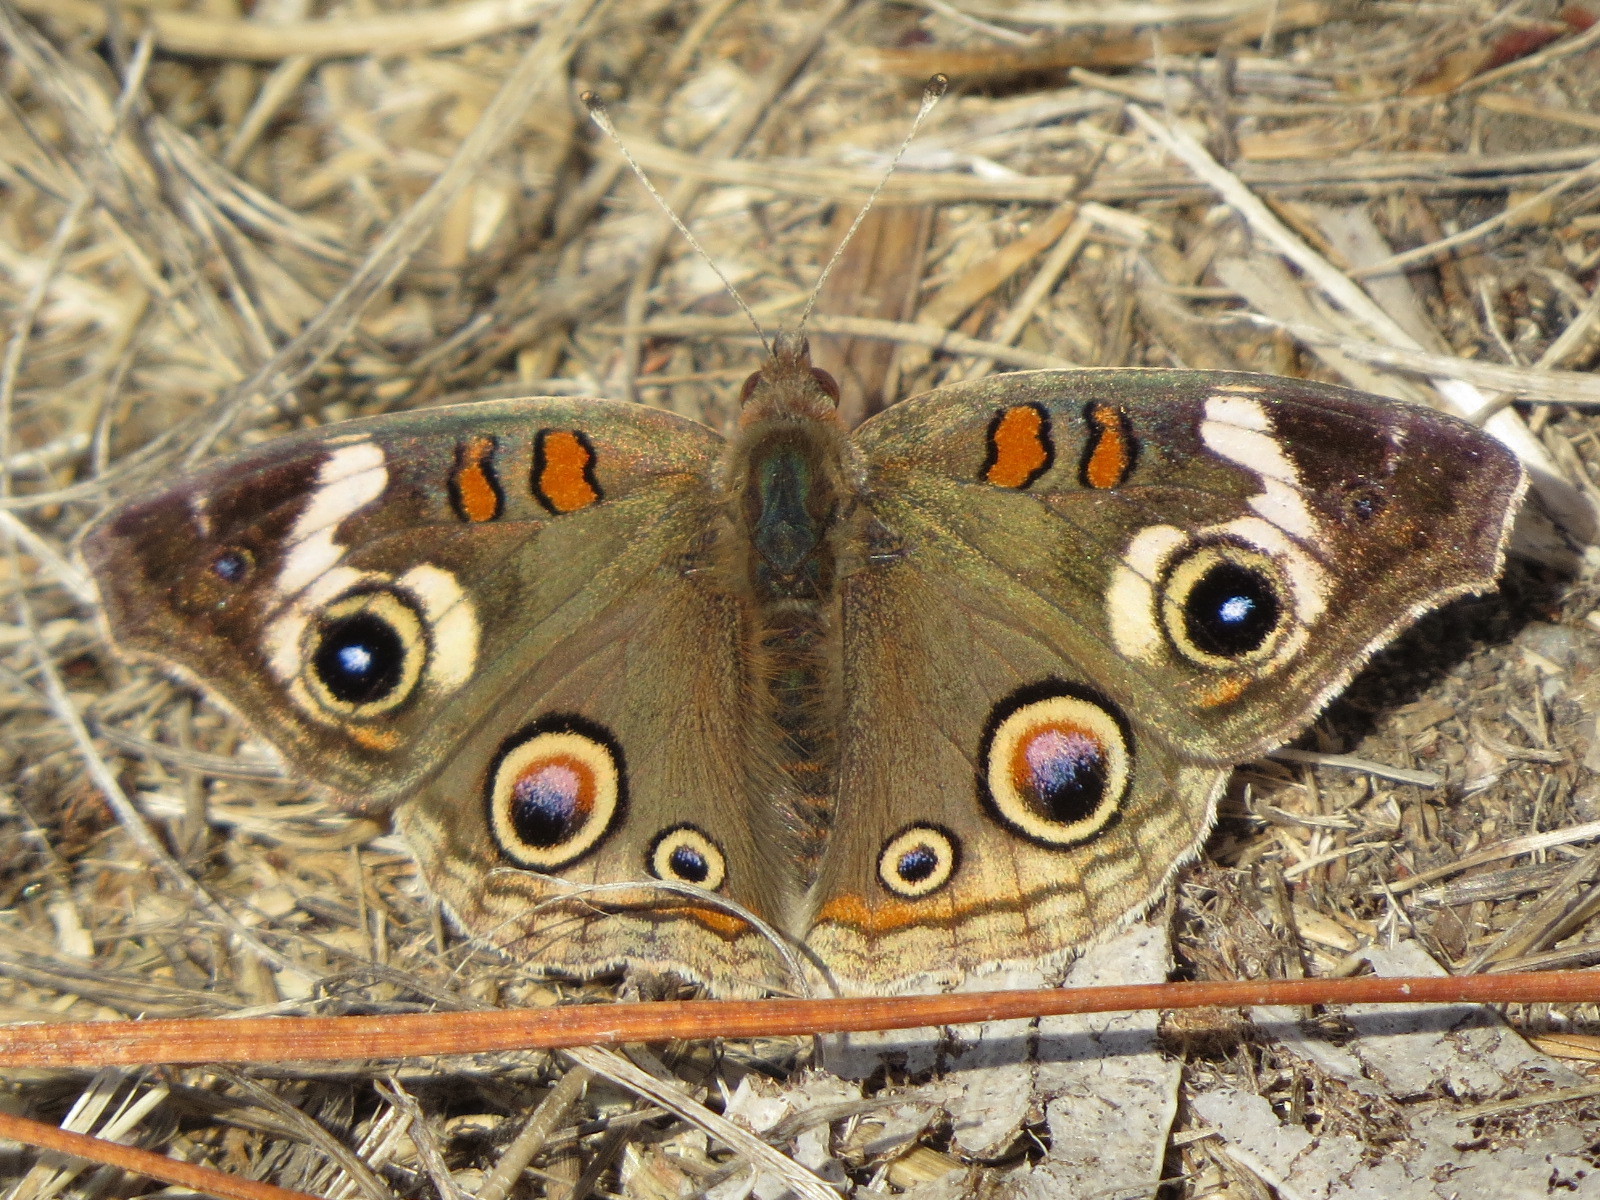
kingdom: Animalia
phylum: Arthropoda
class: Insecta
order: Lepidoptera
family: Nymphalidae
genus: Junonia
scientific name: Junonia grisea
